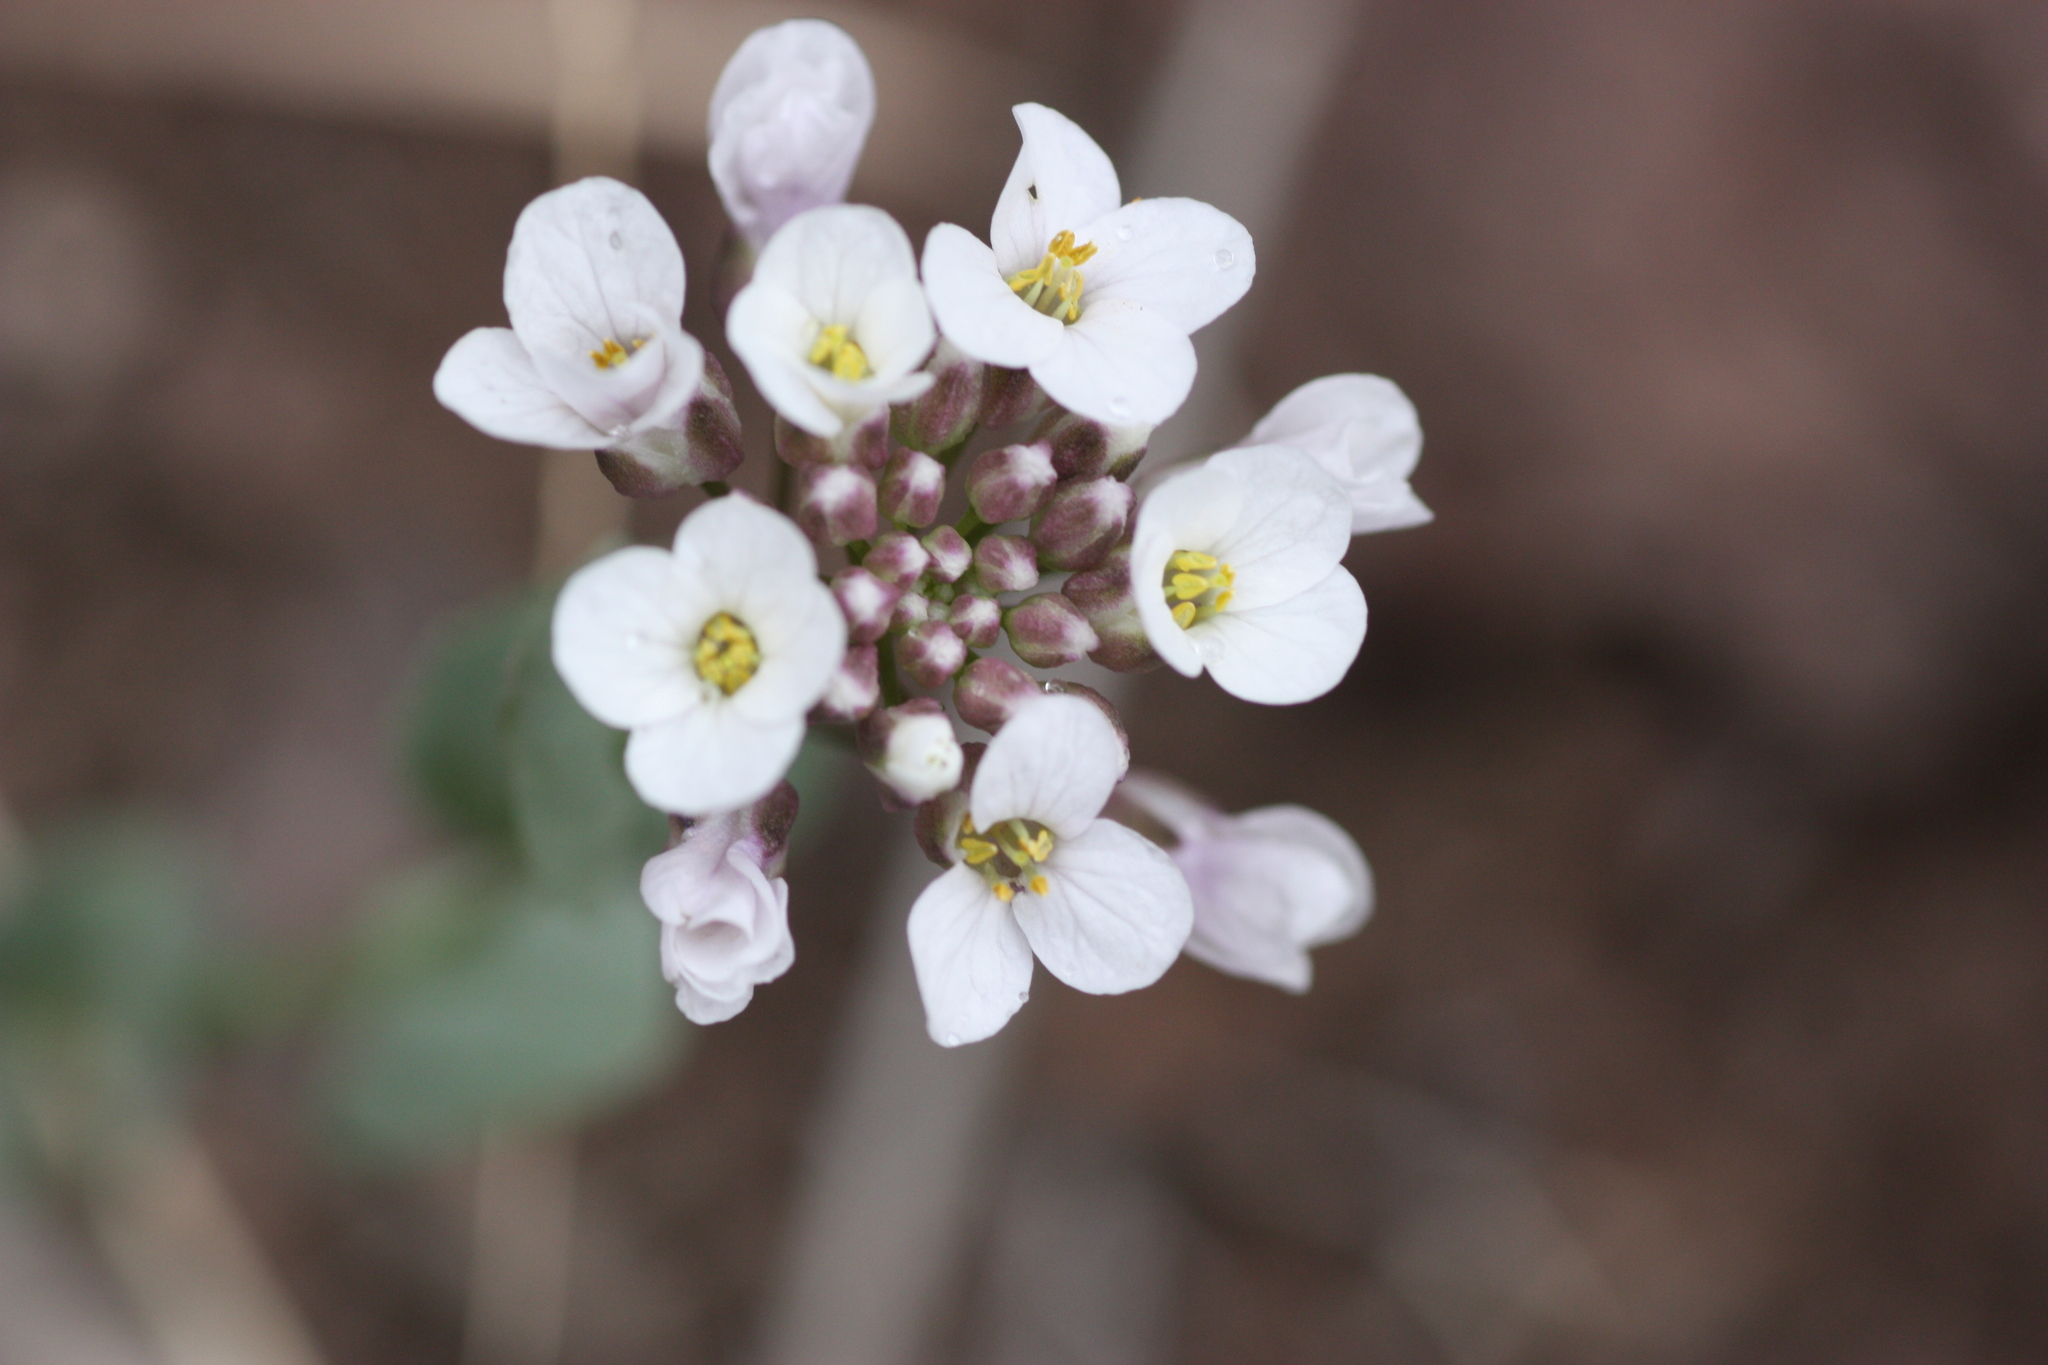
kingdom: Plantae
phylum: Tracheophyta
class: Magnoliopsida
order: Brassicales
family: Brassicaceae
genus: Noccaea
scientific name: Noccaea fendleri
